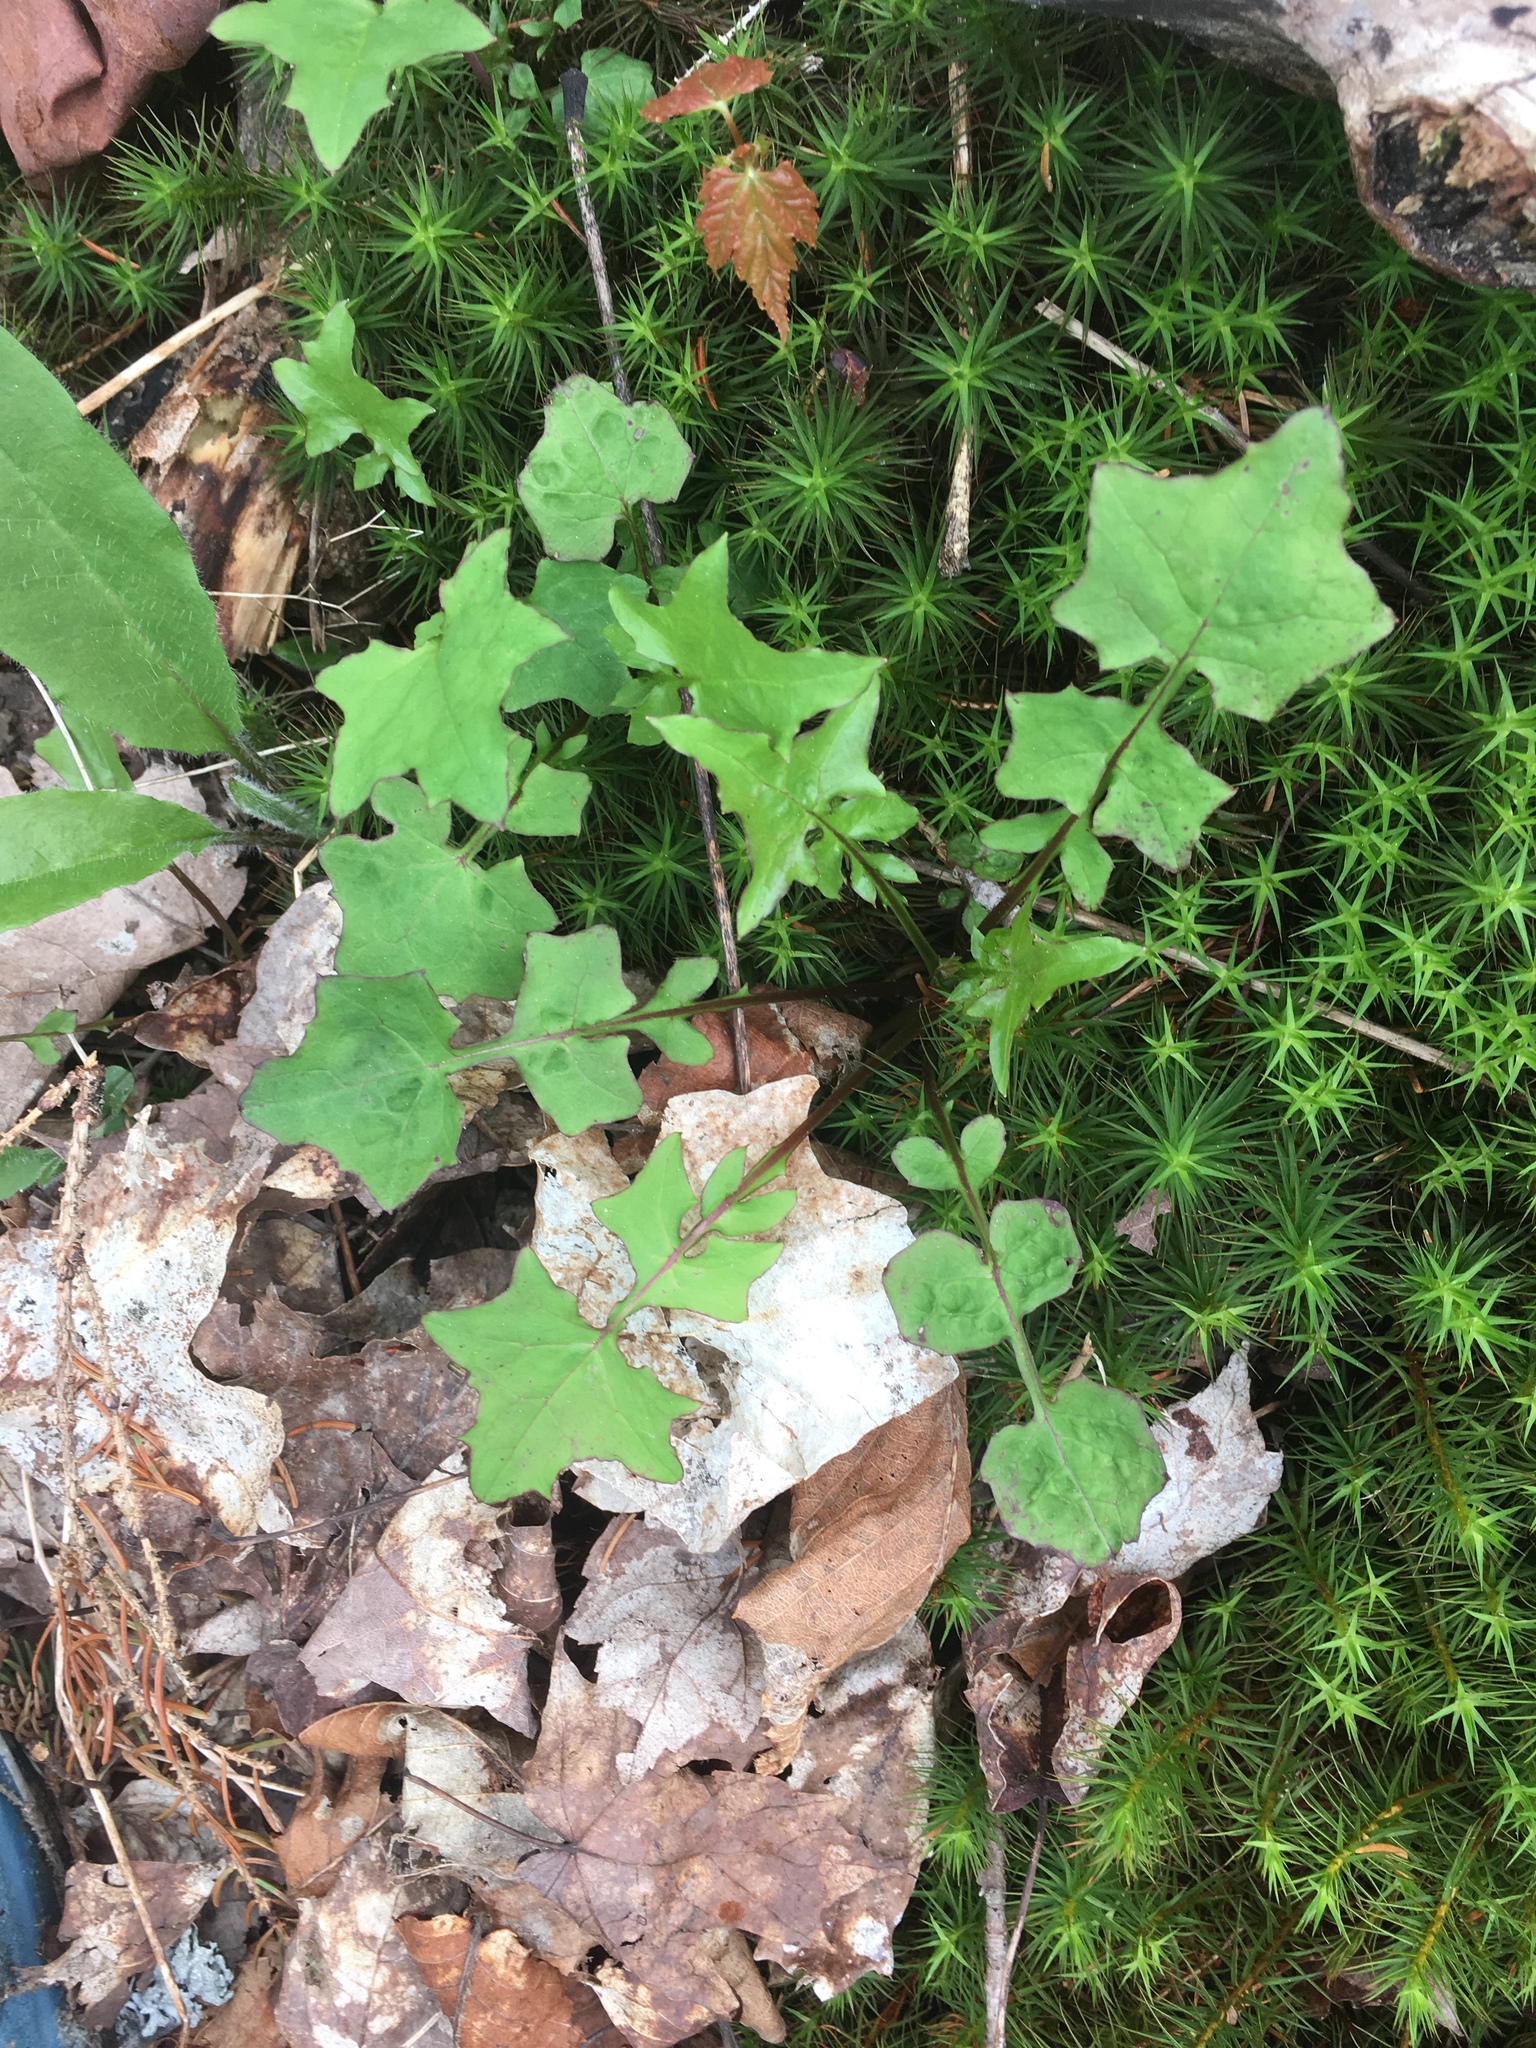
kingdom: Plantae
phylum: Tracheophyta
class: Magnoliopsida
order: Asterales
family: Asteraceae
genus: Mycelis
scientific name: Mycelis muralis
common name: Wall lettuce
